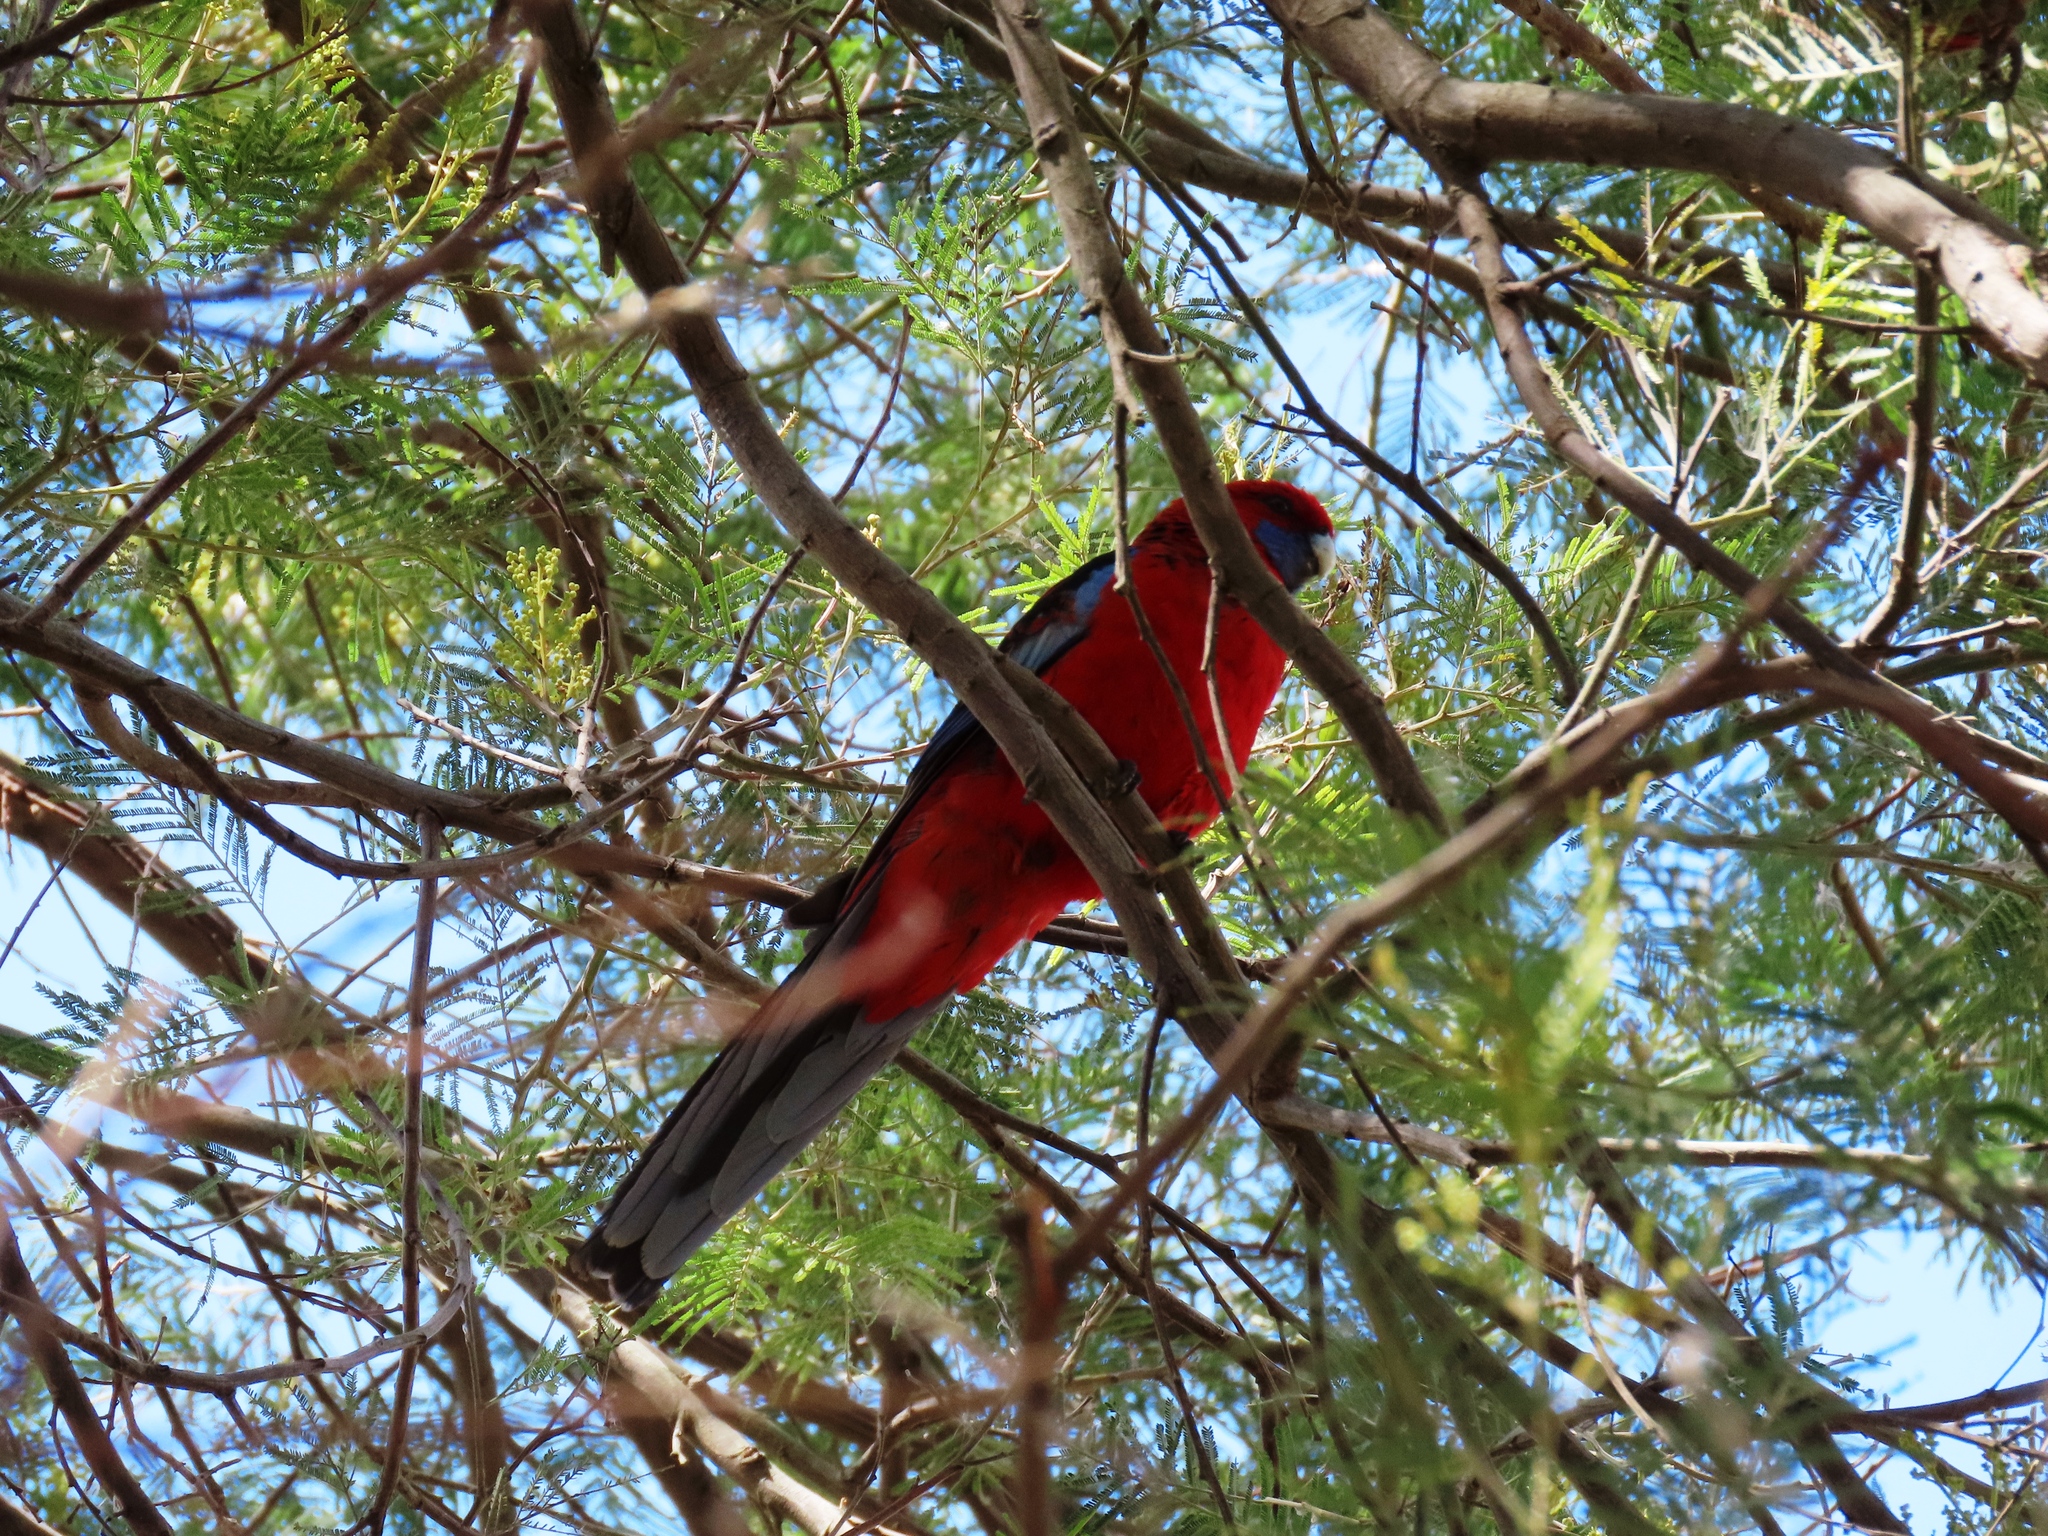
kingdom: Animalia
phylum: Chordata
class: Aves
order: Psittaciformes
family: Psittacidae
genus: Platycercus
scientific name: Platycercus elegans
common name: Crimson rosella
